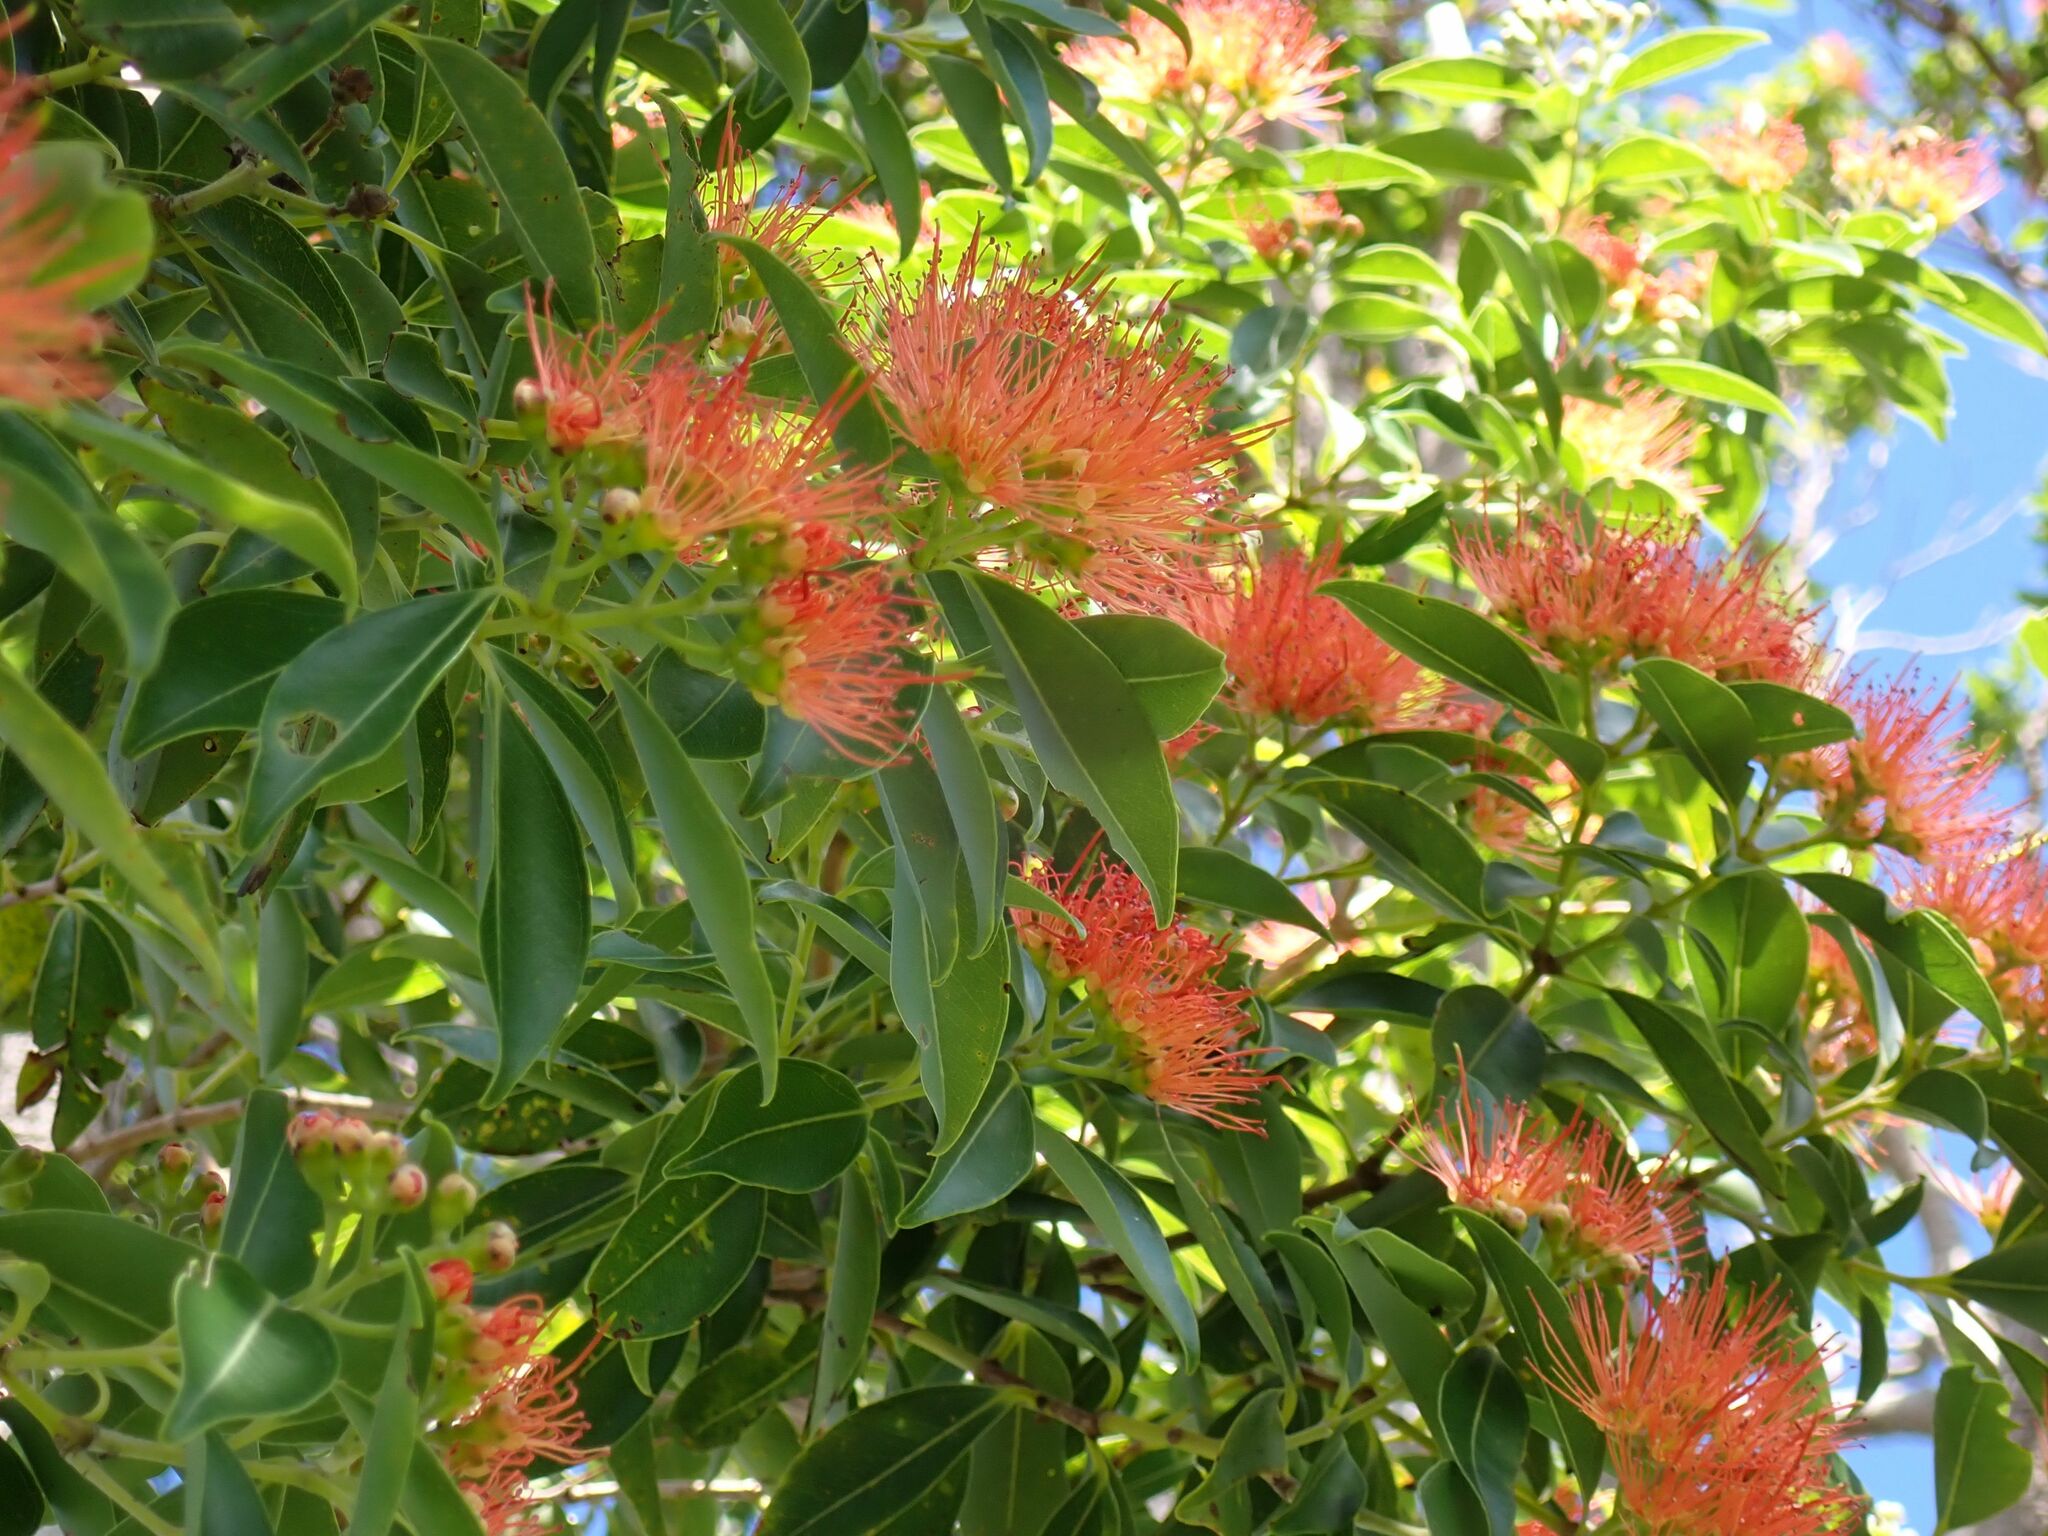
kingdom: Plantae
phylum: Tracheophyta
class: Magnoliopsida
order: Myrtales
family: Myrtaceae
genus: Metrosideros
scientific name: Metrosideros vitiensis
